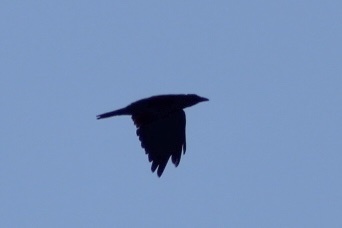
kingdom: Animalia
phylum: Chordata
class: Aves
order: Passeriformes
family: Corvidae
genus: Corvus
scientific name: Corvus brachyrhynchos
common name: American crow
